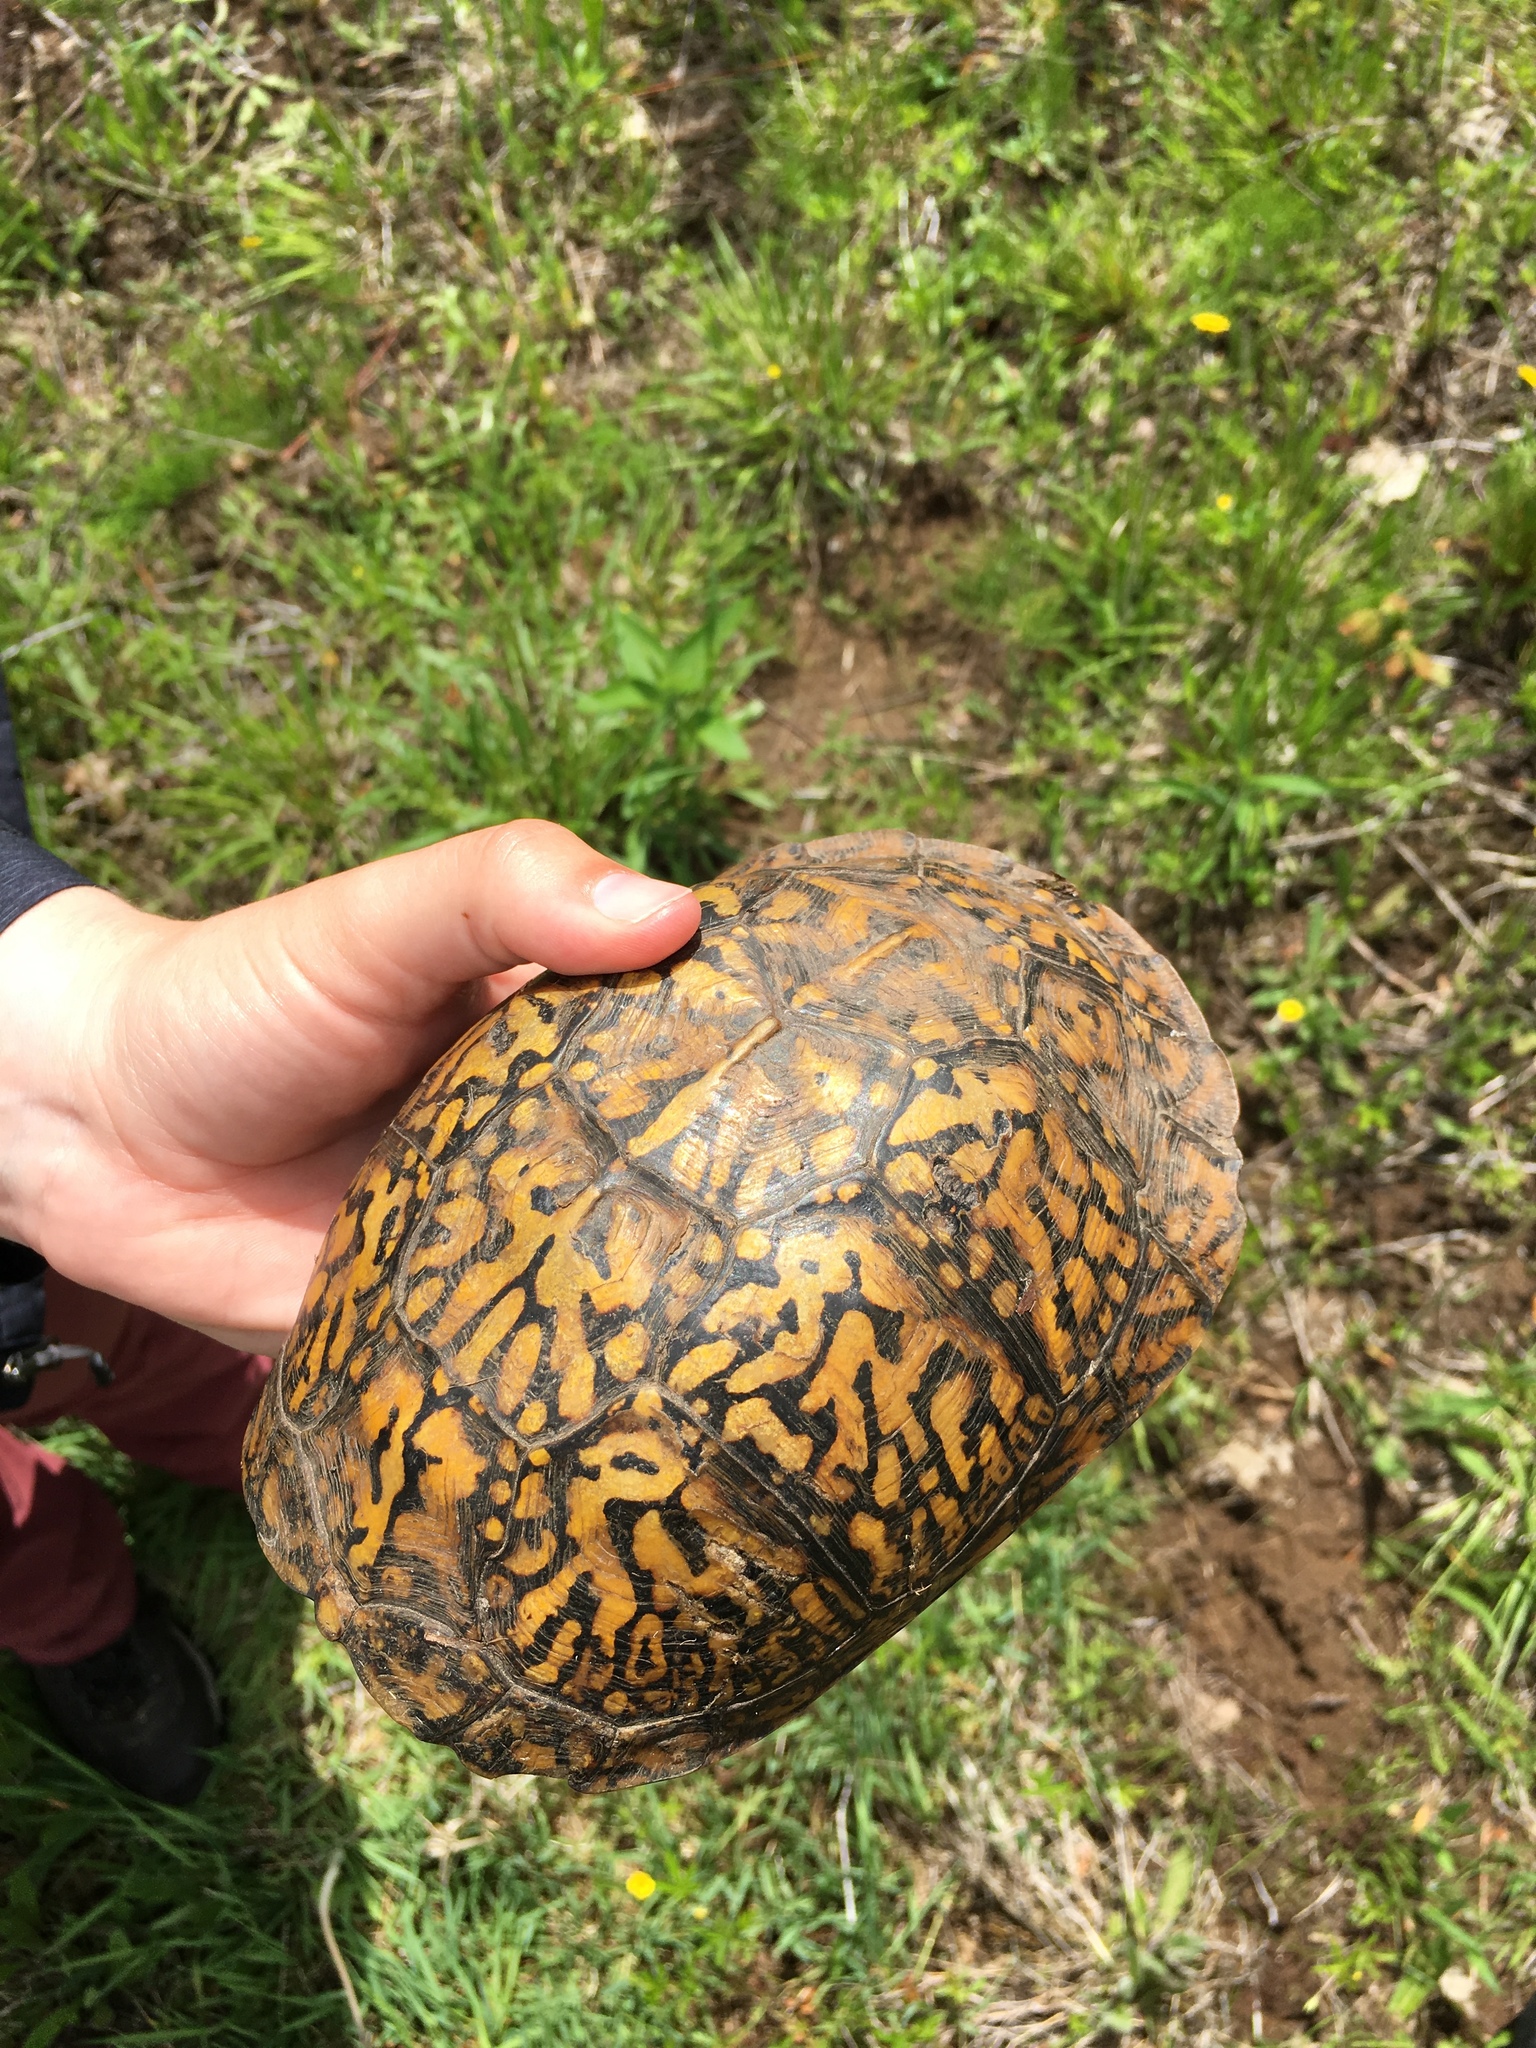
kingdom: Animalia
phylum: Chordata
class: Testudines
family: Emydidae
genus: Terrapene
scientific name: Terrapene carolina
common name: Common box turtle
